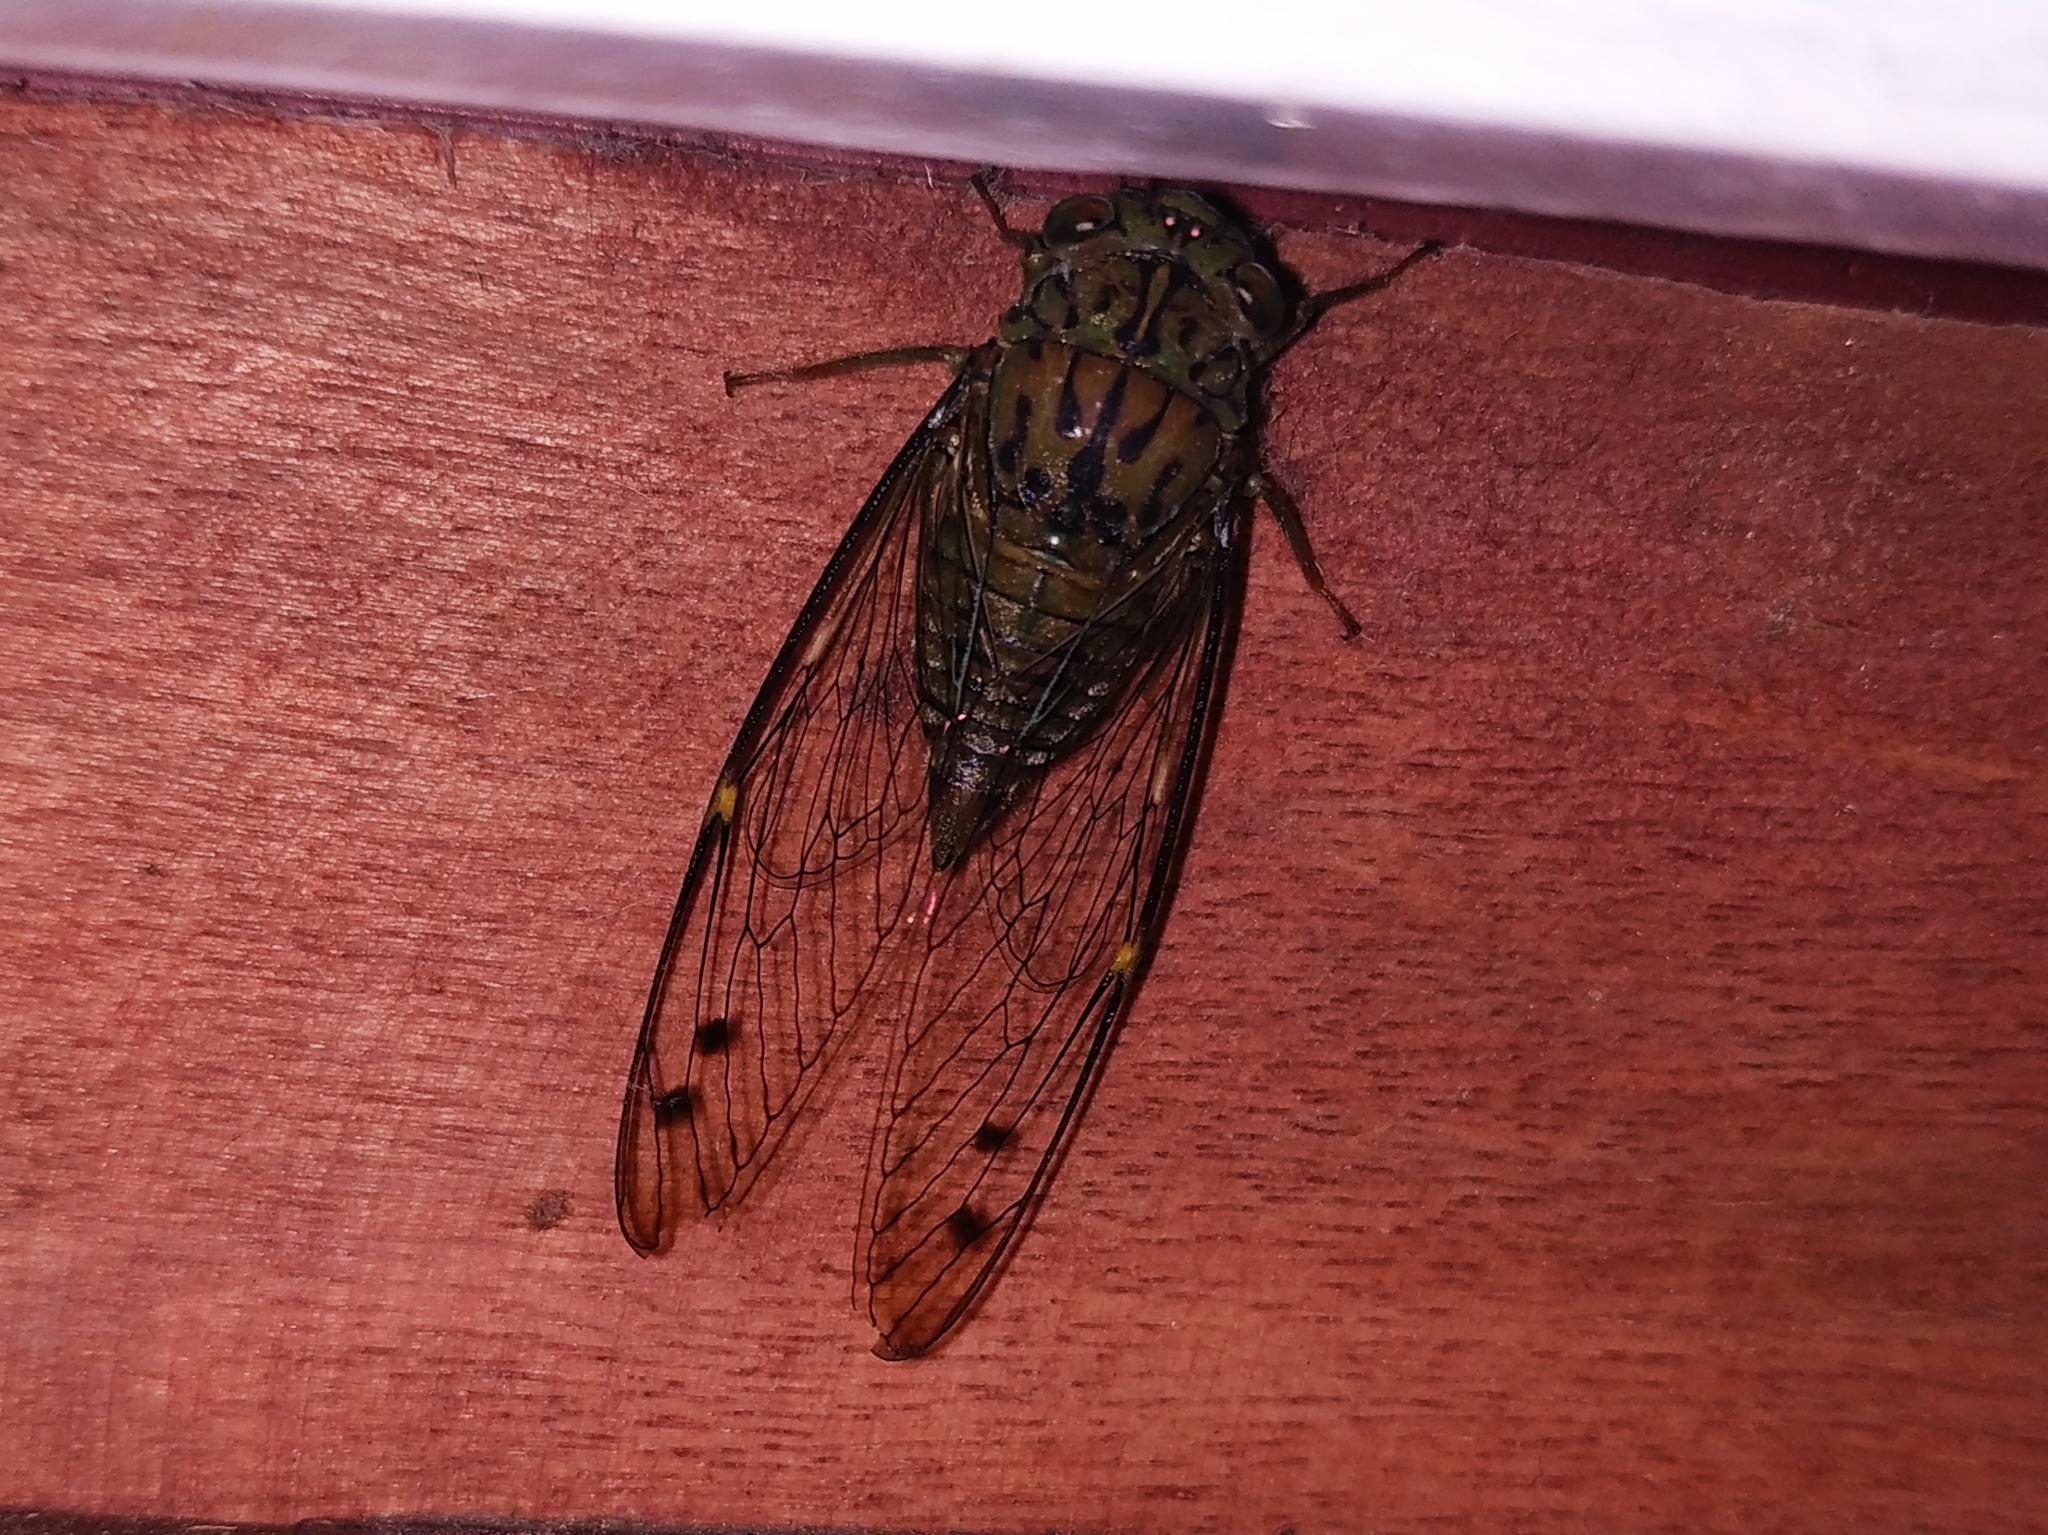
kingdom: Animalia
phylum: Arthropoda
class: Insecta
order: Hemiptera
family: Cicadidae
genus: Purana
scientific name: Purana tigrina
